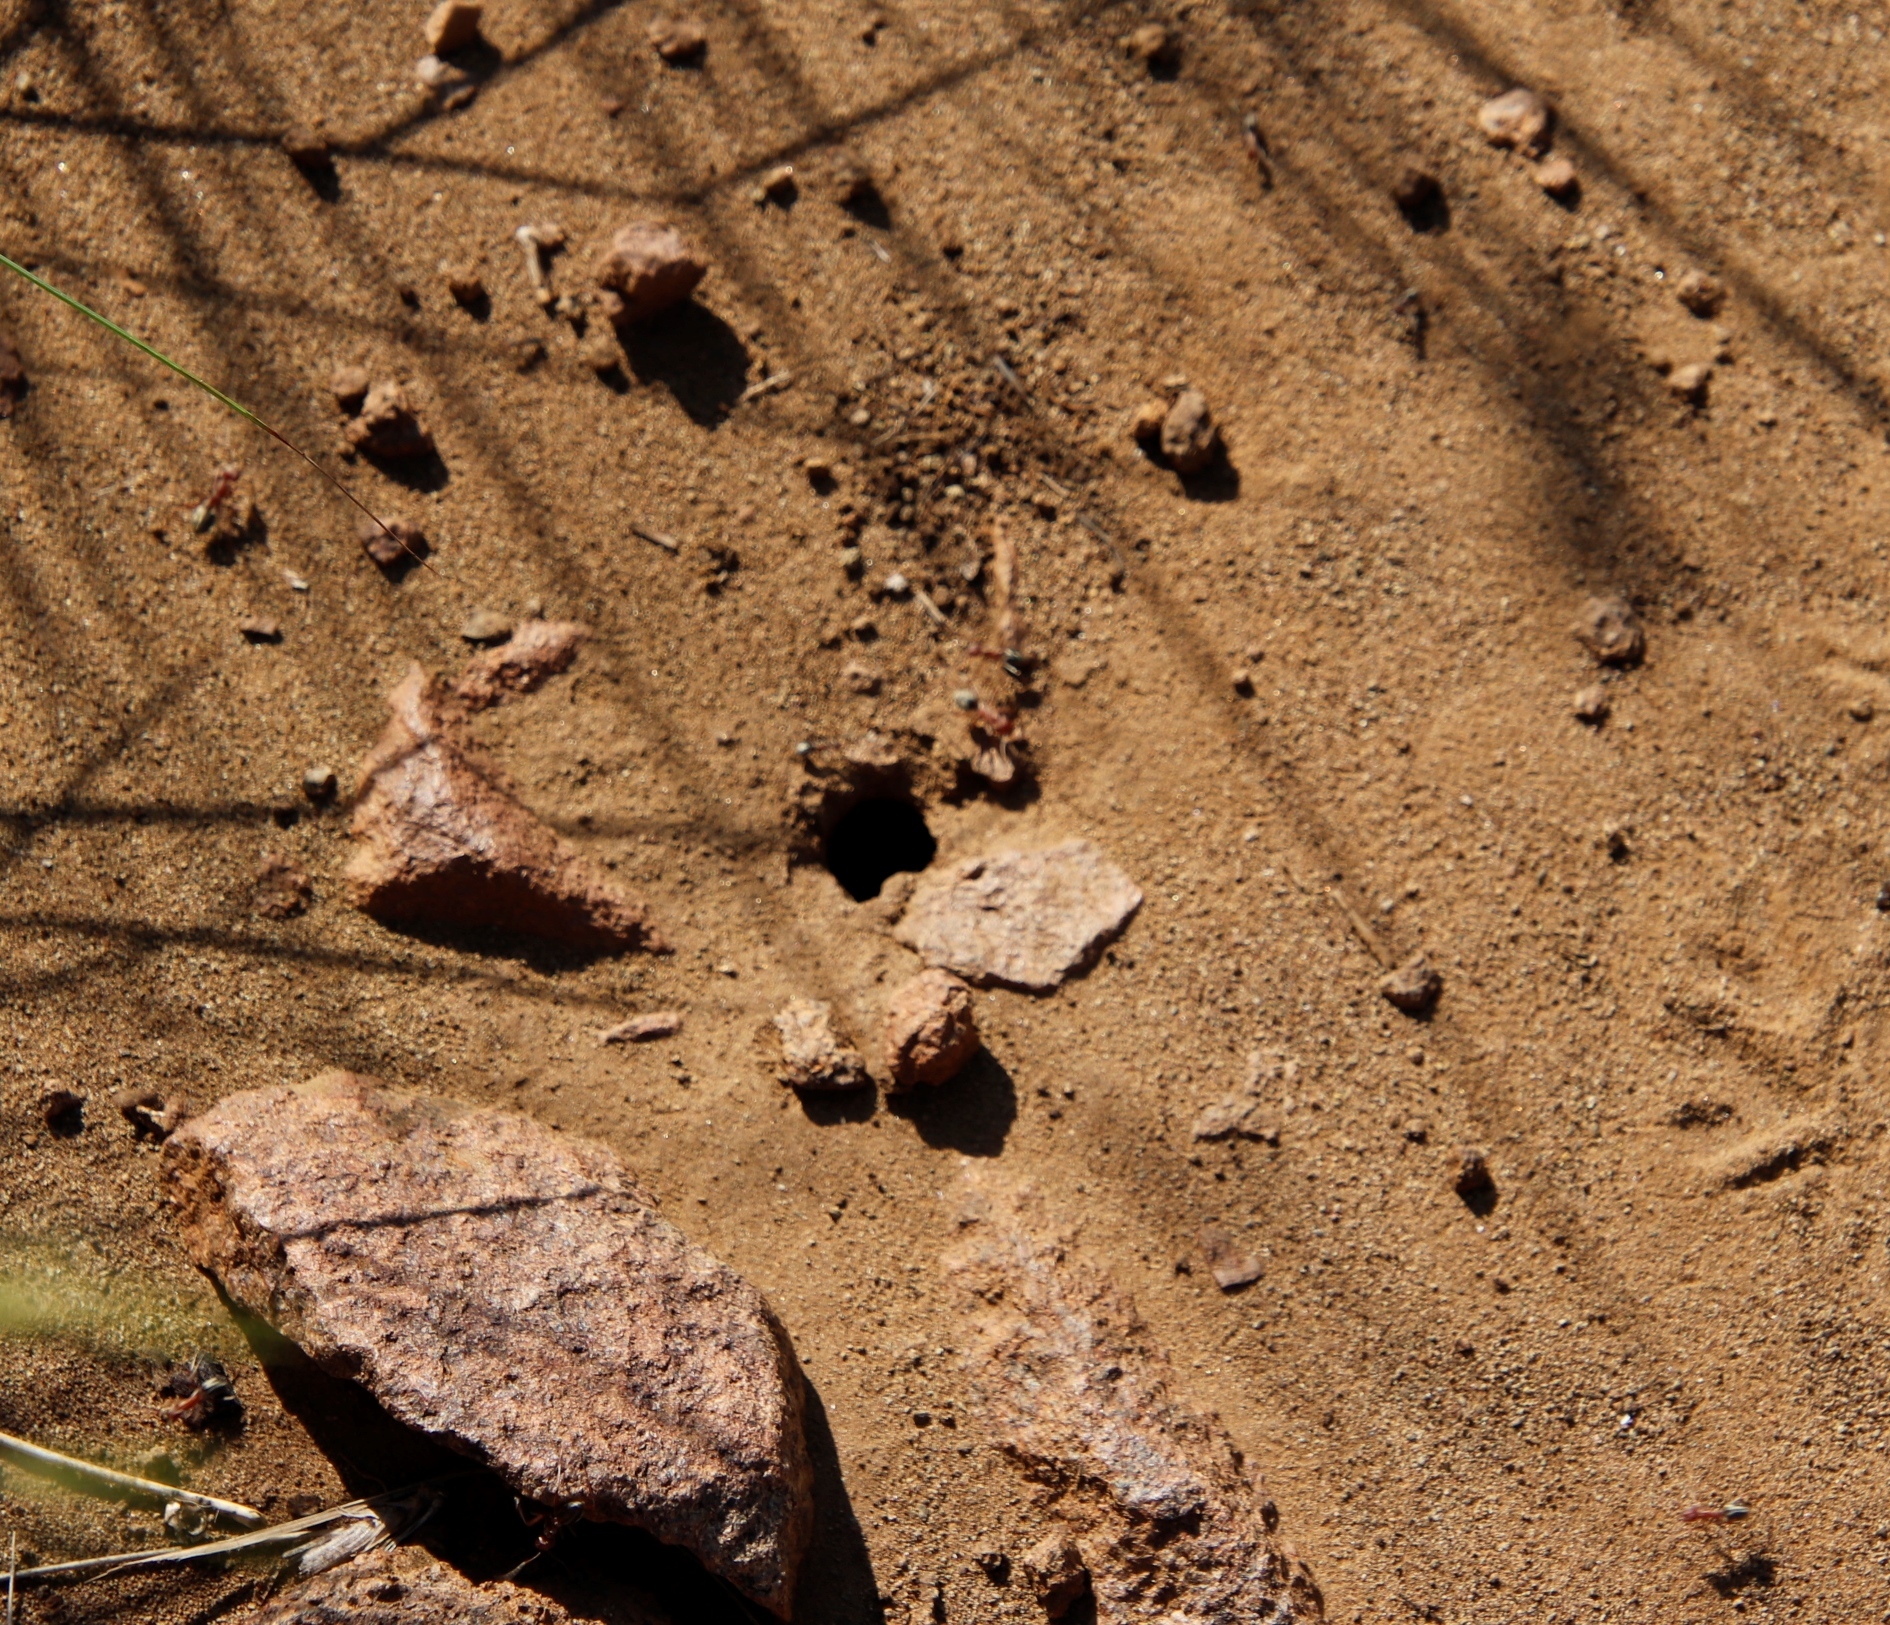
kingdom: Animalia
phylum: Arthropoda
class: Insecta
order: Hymenoptera
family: Formicidae
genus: Anoplolepis
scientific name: Anoplolepis custodiens
